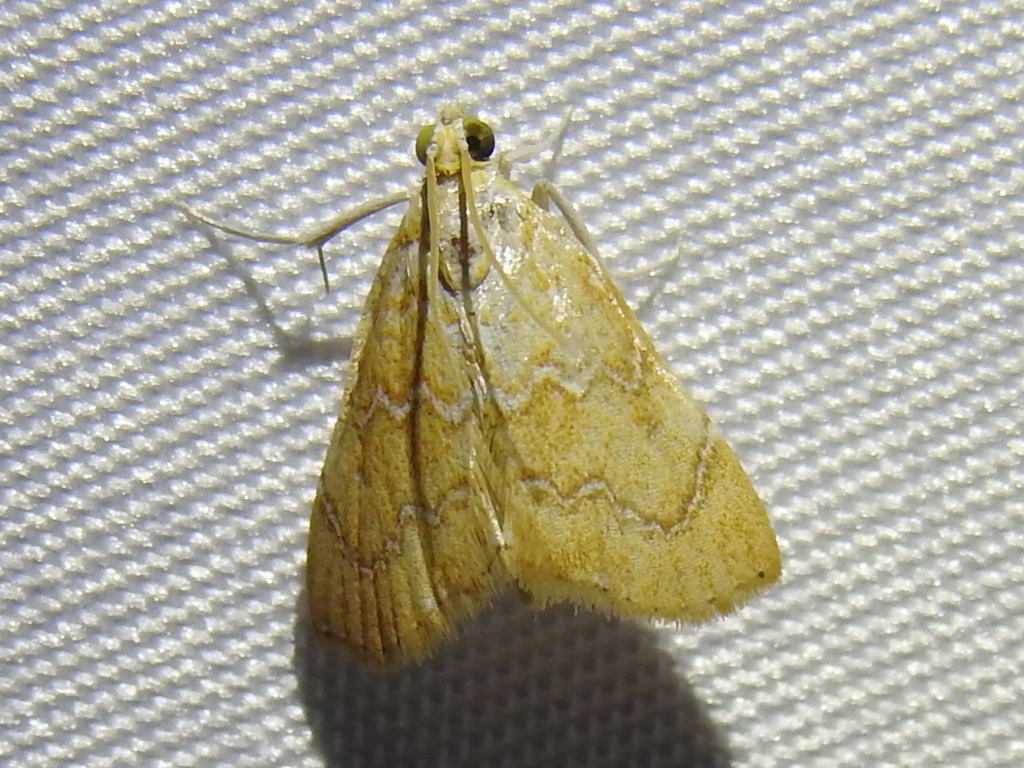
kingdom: Animalia
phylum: Arthropoda
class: Insecta
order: Lepidoptera
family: Crambidae
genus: Glaphyria
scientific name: Glaphyria sesquistrialis
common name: White-roped glaphyria
